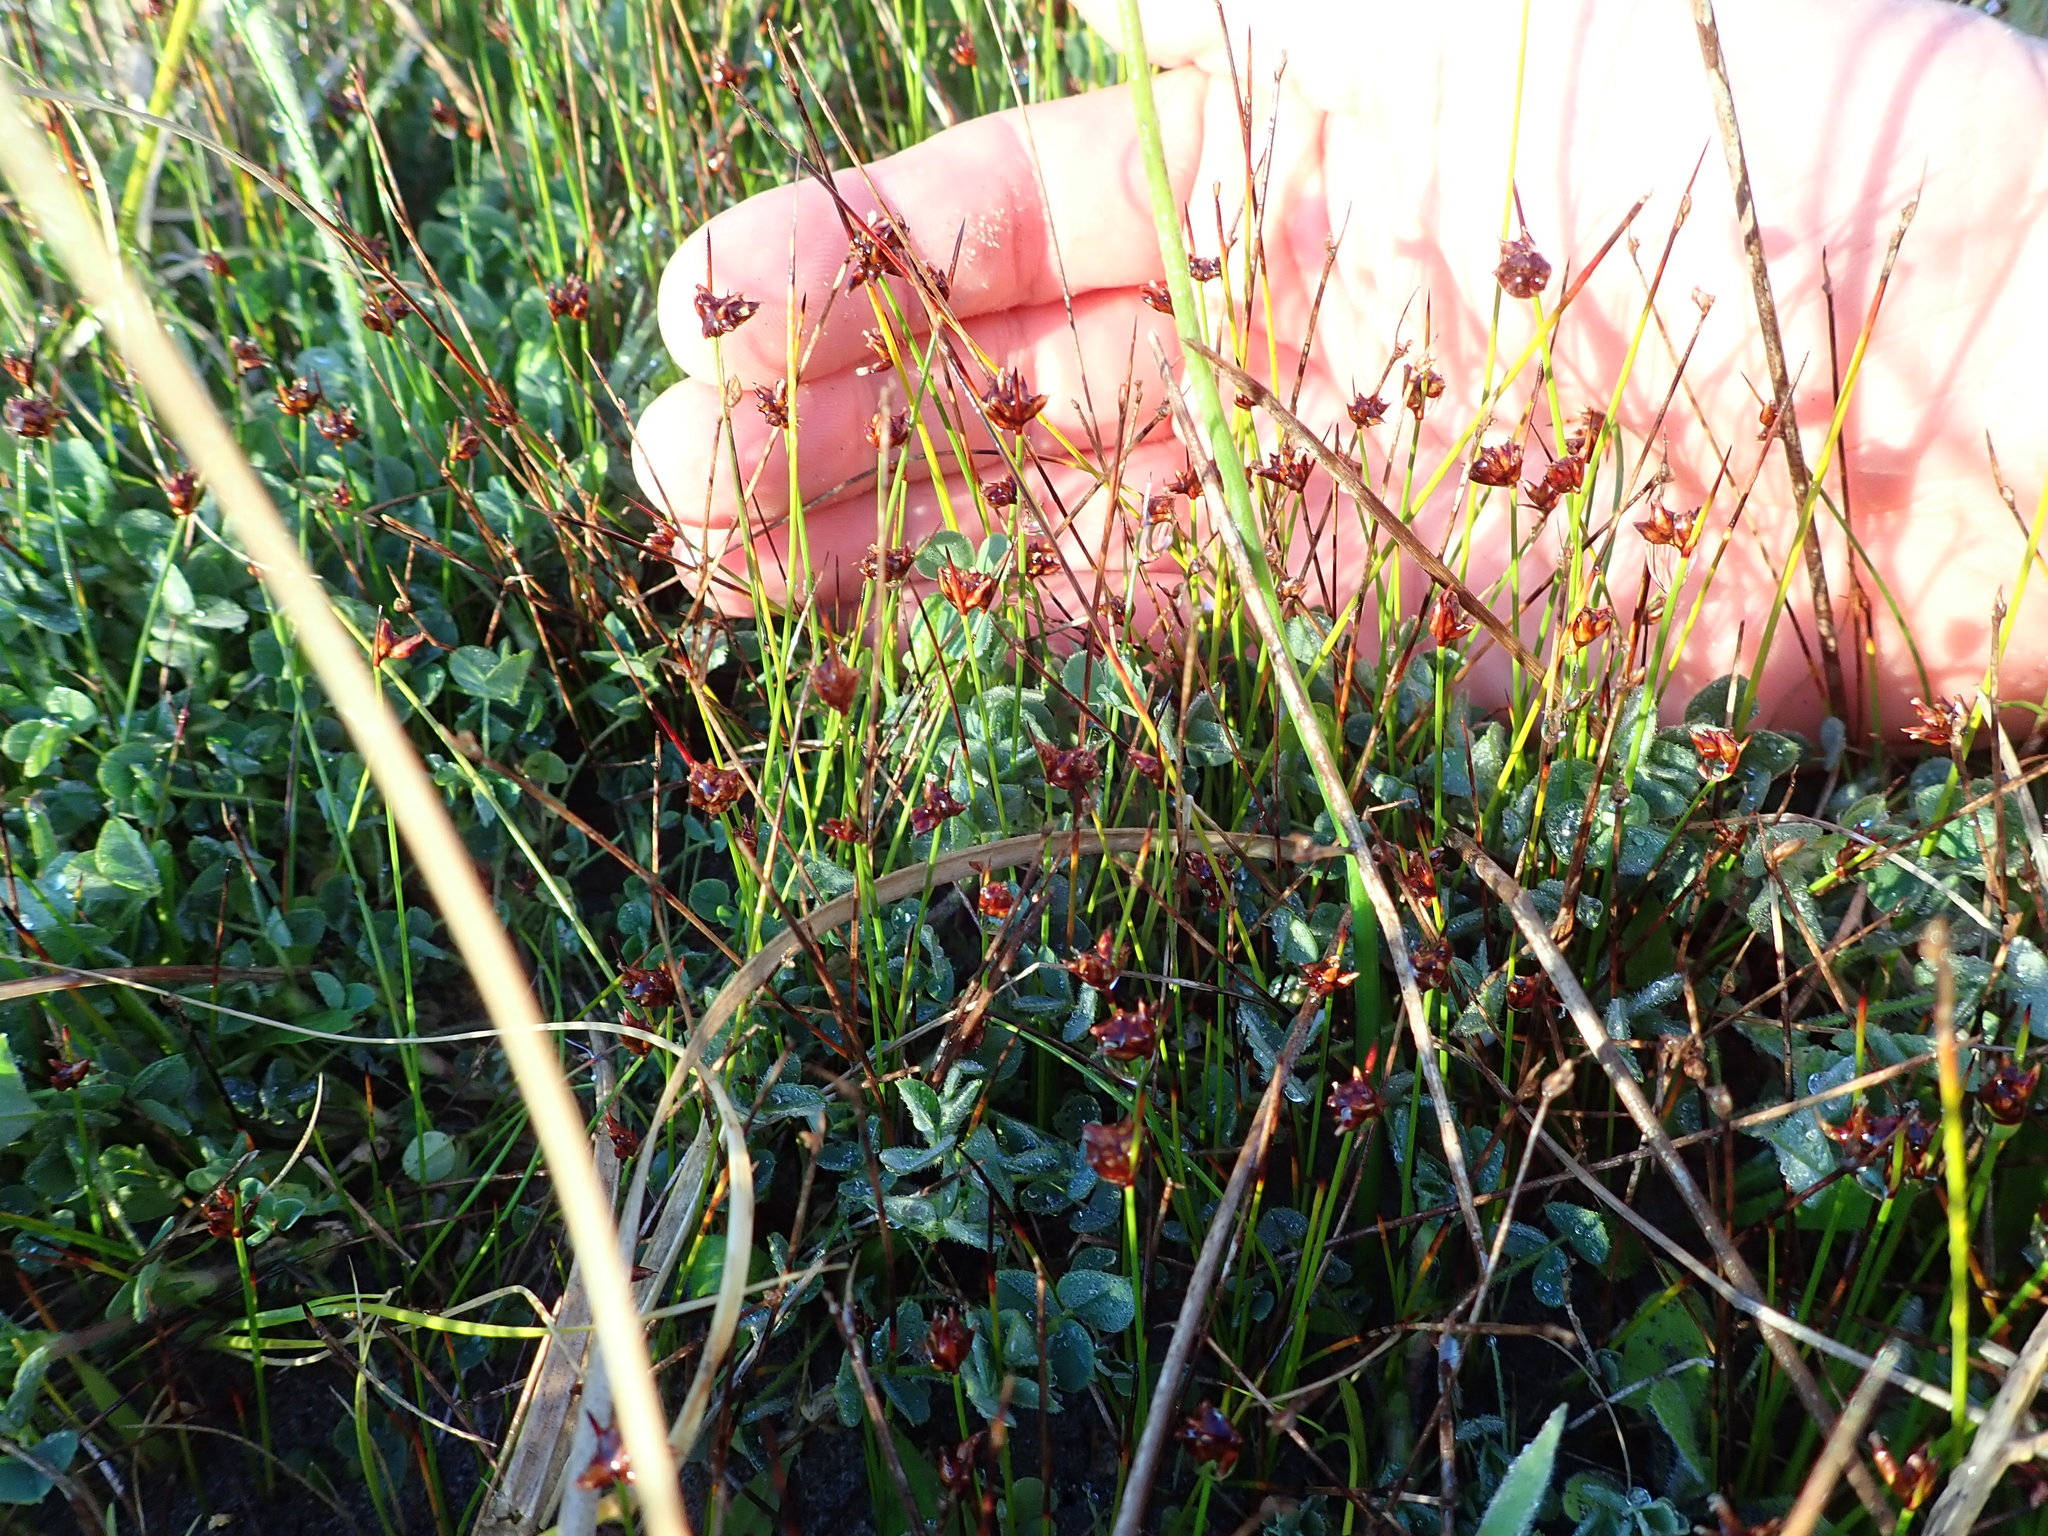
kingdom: Plantae
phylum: Tracheophyta
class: Liliopsida
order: Poales
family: Cyperaceae
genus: Schoenus
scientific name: Schoenus nitens
